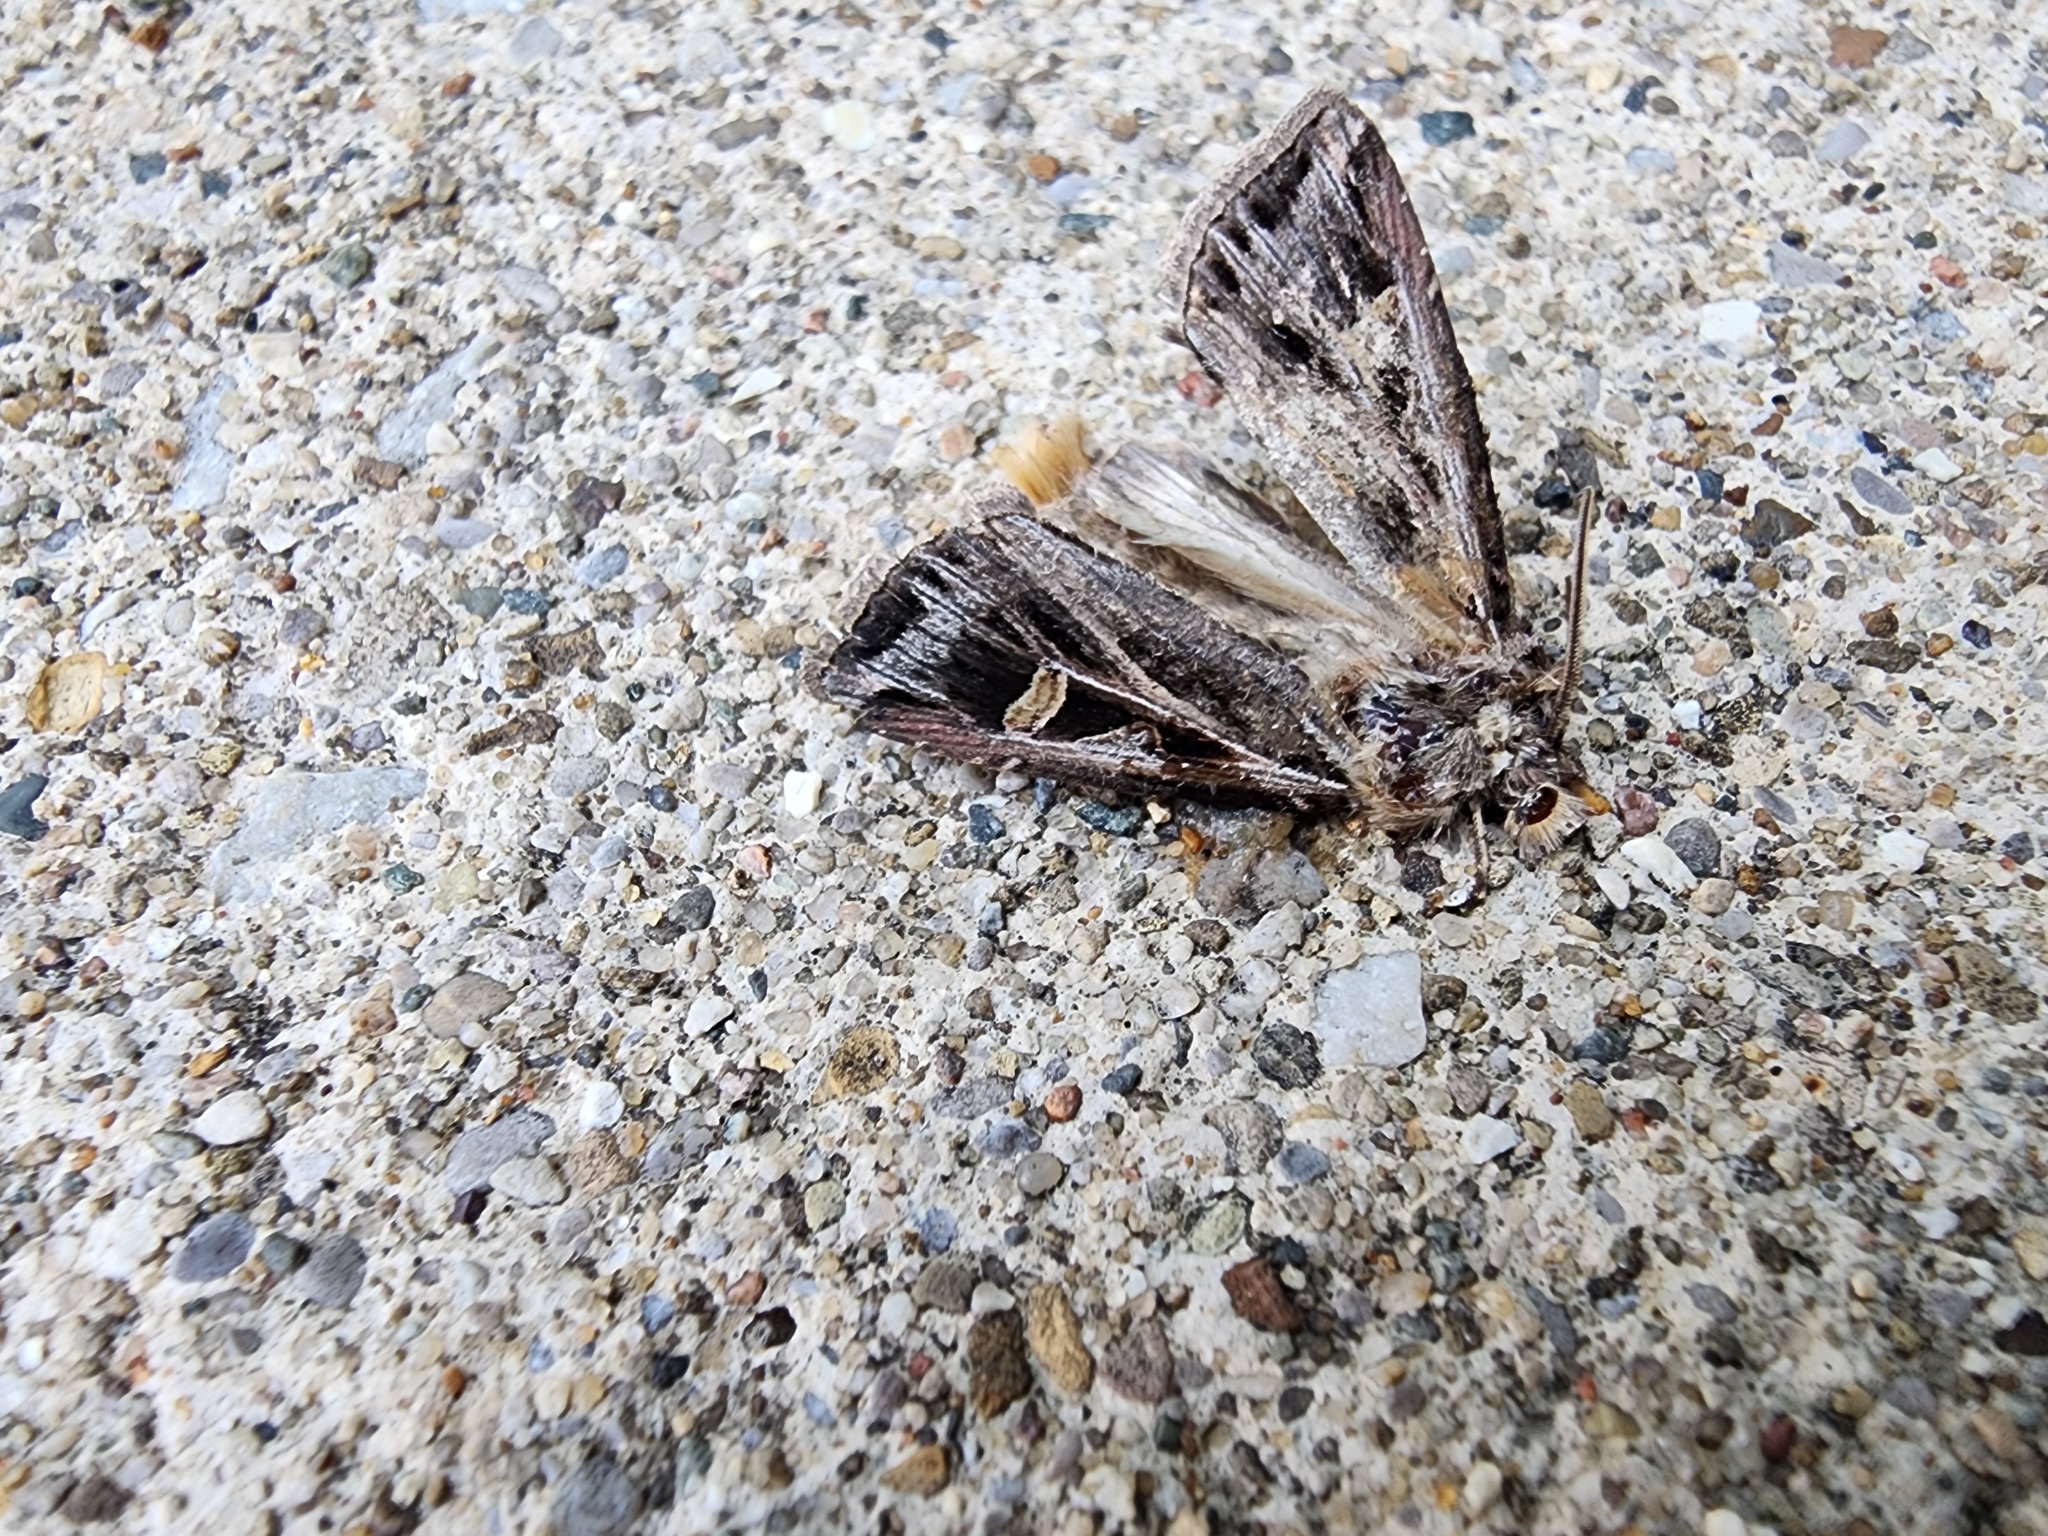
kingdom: Animalia
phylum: Arthropoda
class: Insecta
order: Lepidoptera
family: Noctuidae
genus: Feltia
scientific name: Feltia jaculifera
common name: Dingy cutworm moth
